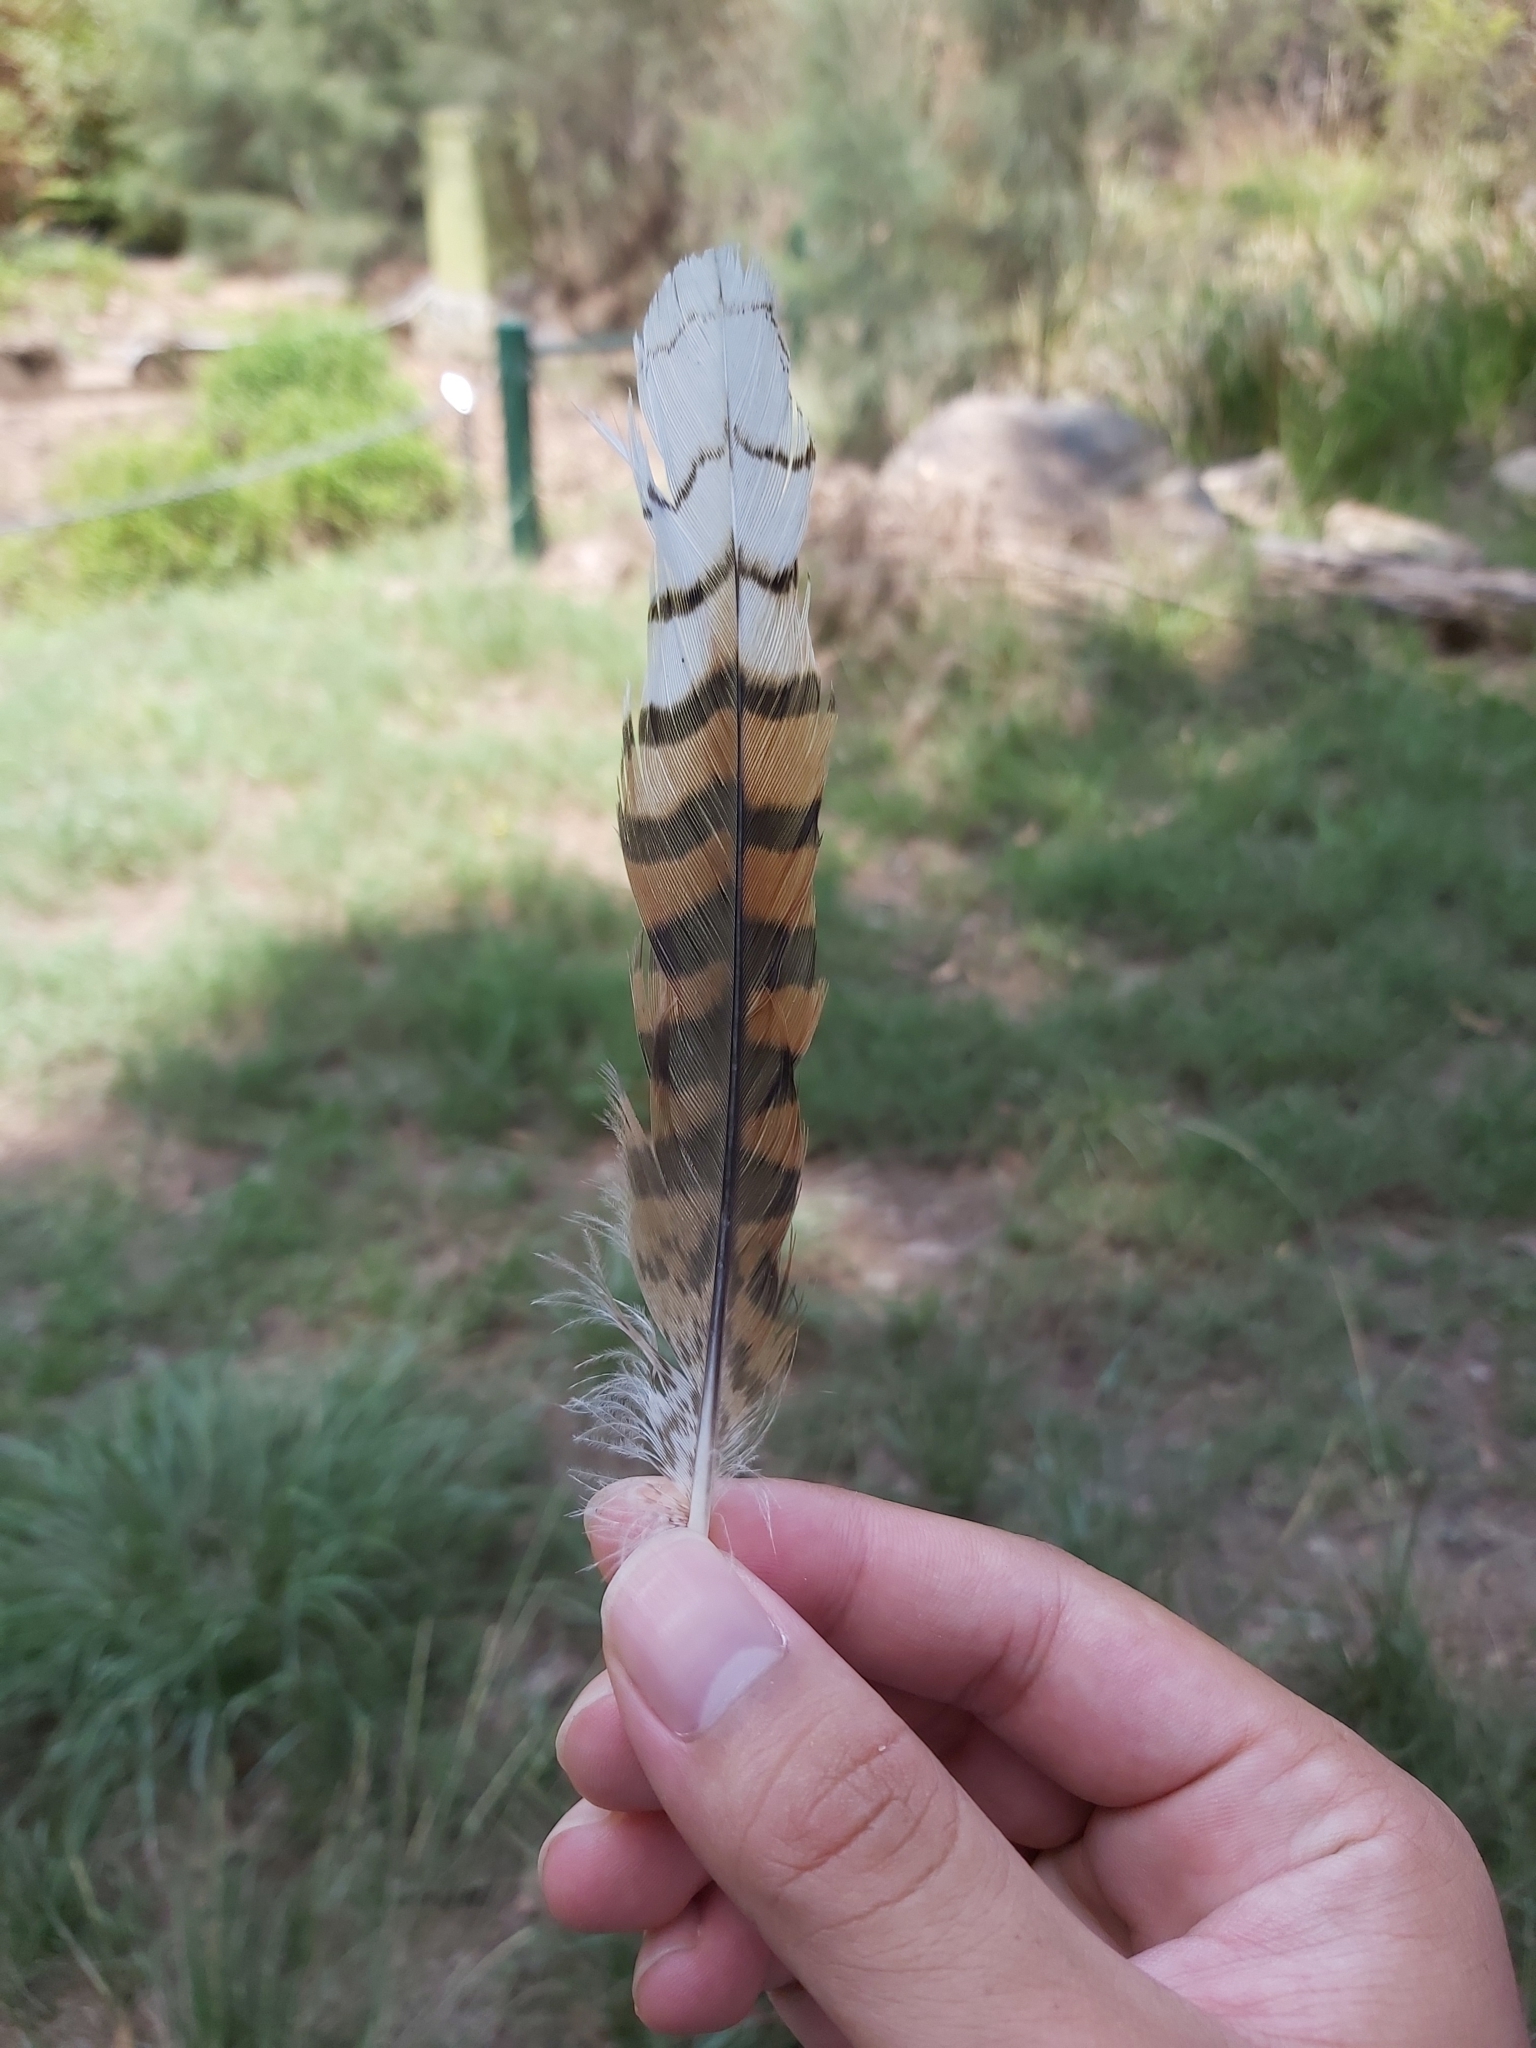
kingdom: Animalia
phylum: Chordata
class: Aves
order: Coraciiformes
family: Alcedinidae
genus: Dacelo
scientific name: Dacelo novaeguineae
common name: Laughing kookaburra
